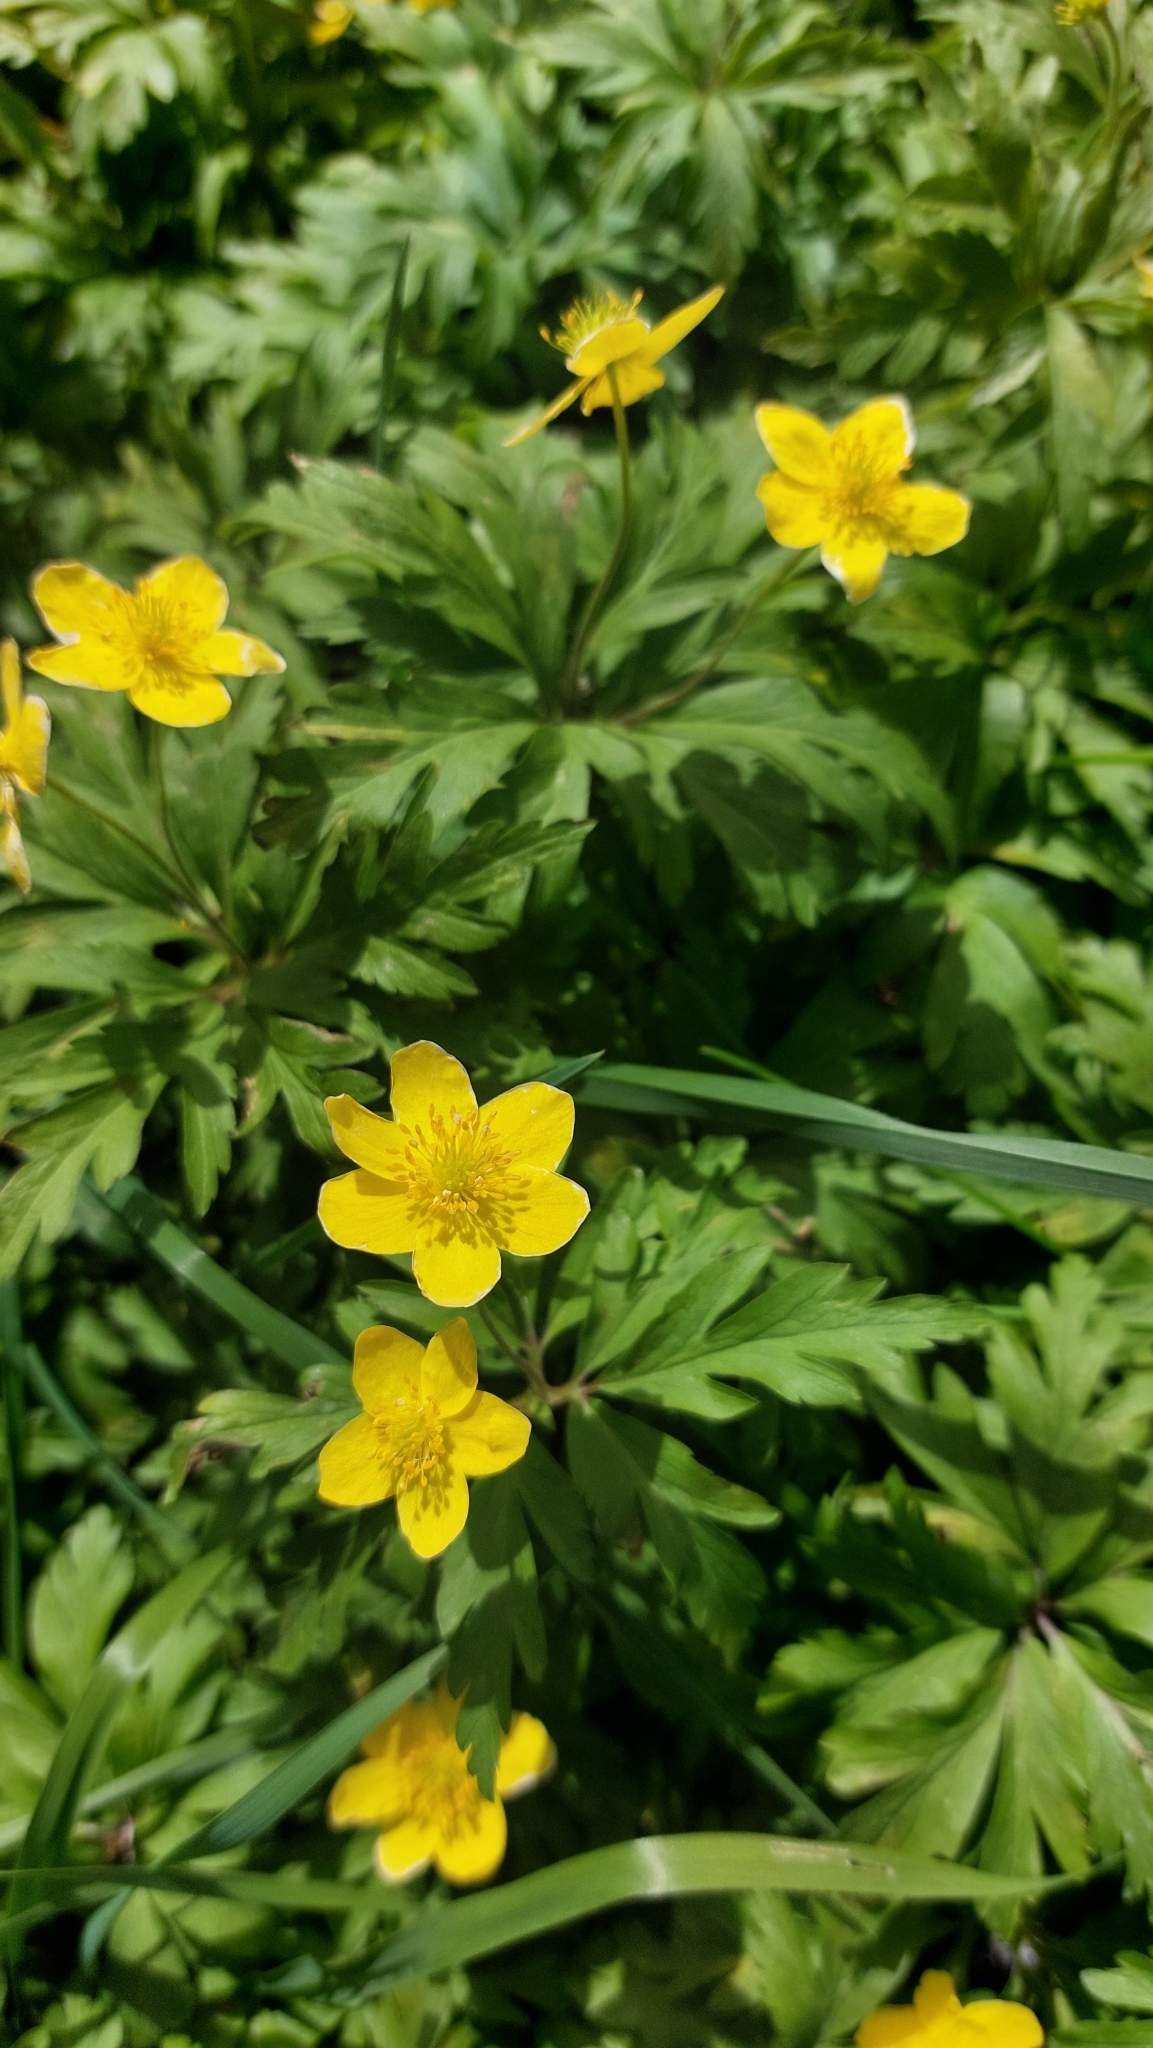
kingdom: Plantae
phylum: Tracheophyta
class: Magnoliopsida
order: Ranunculales
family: Ranunculaceae
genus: Anemone
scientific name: Anemone ranunculoides
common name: Yellow anemone
